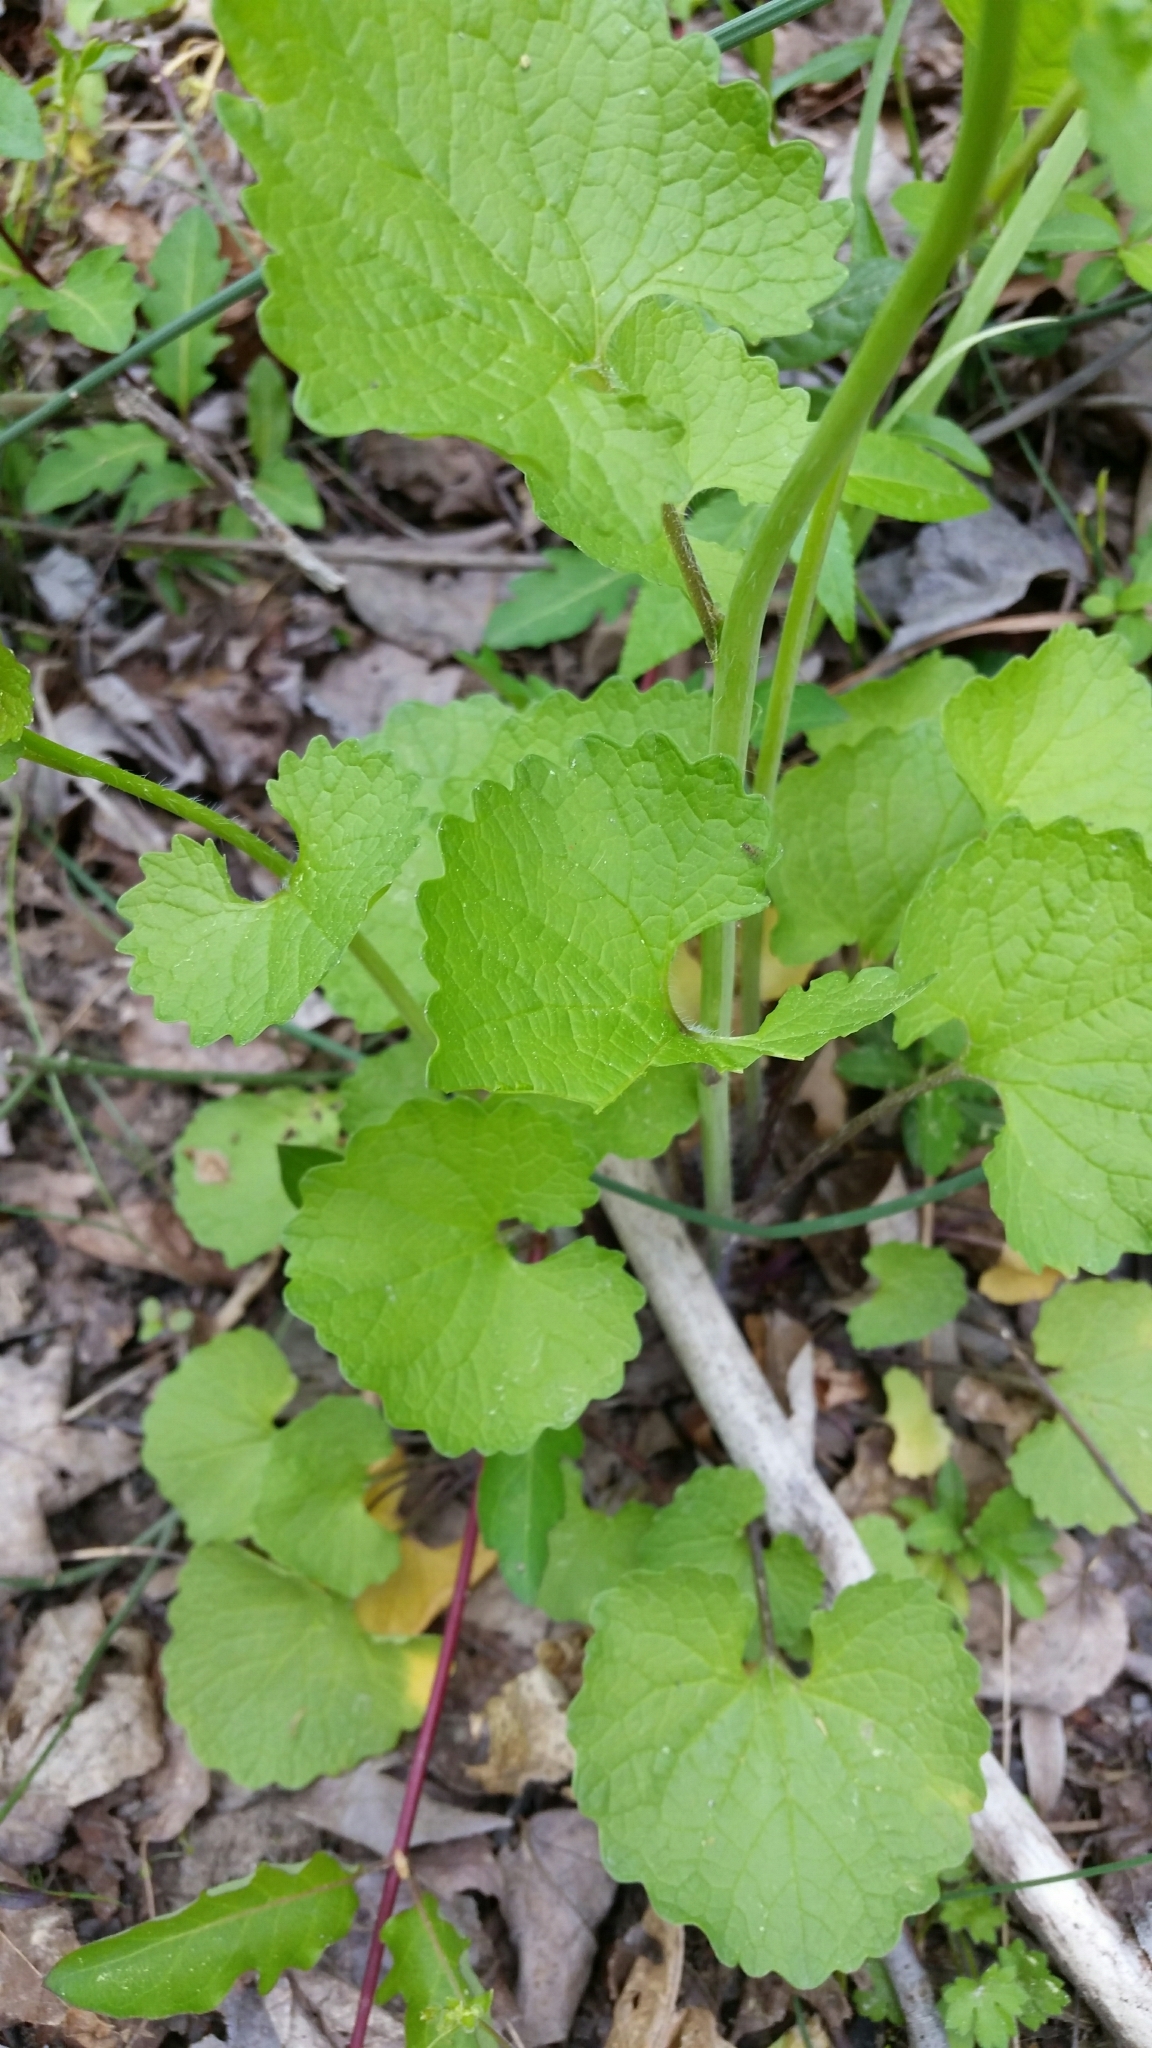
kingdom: Plantae
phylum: Tracheophyta
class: Magnoliopsida
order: Brassicales
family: Brassicaceae
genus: Alliaria
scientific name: Alliaria petiolata
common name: Garlic mustard
